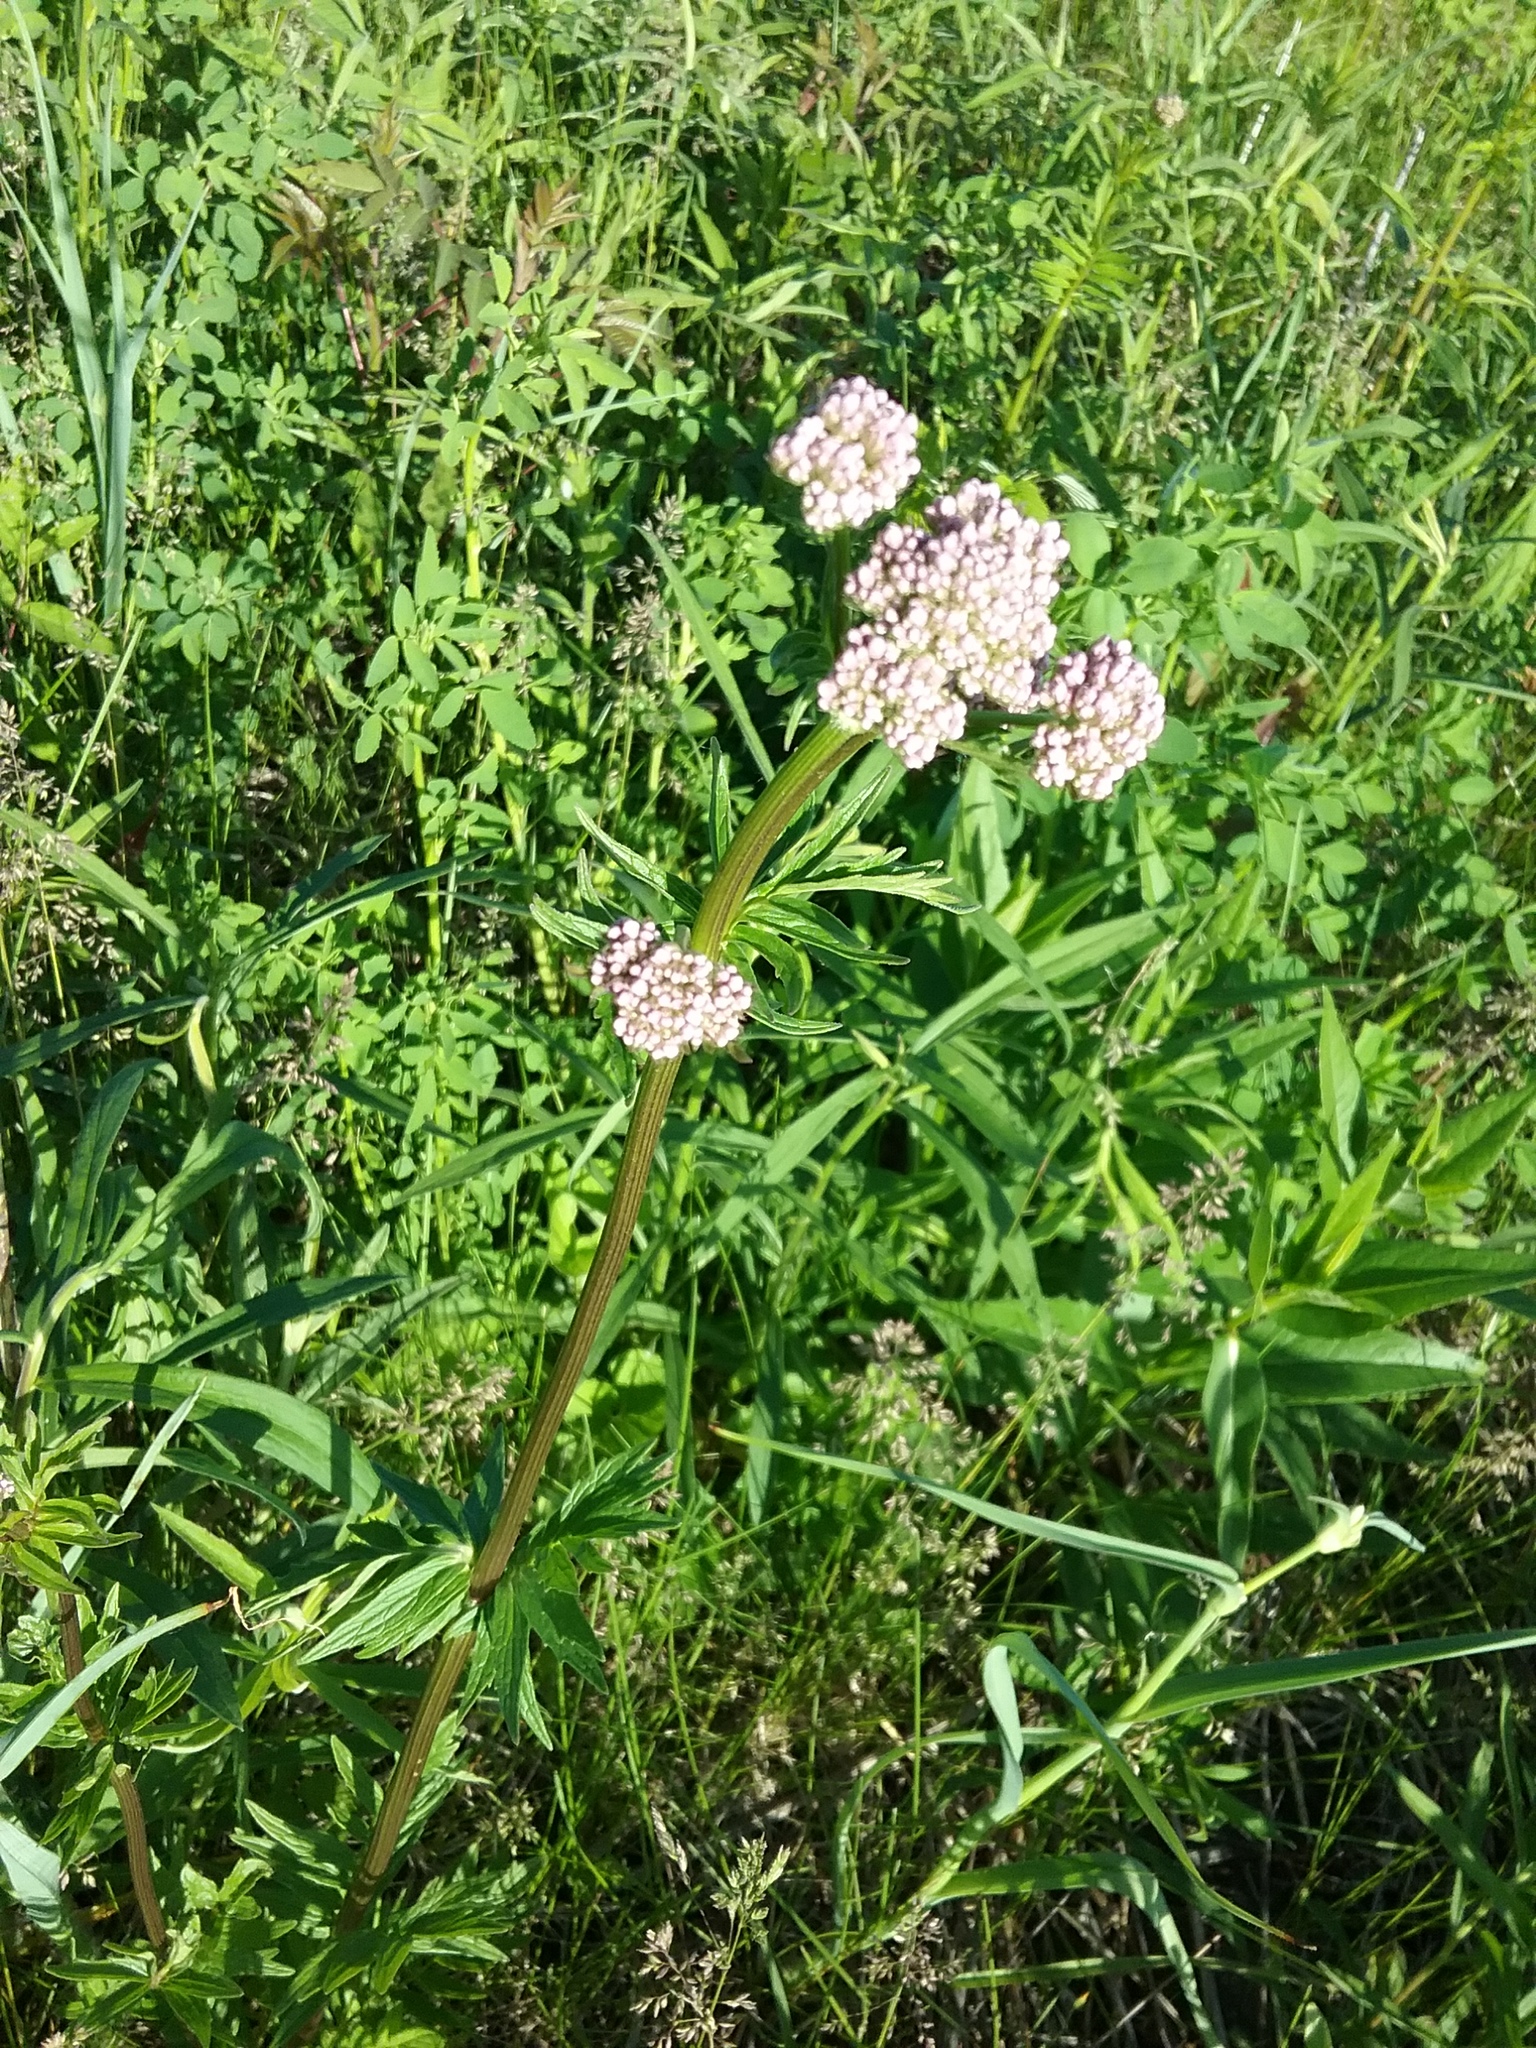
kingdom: Plantae
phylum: Tracheophyta
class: Magnoliopsida
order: Dipsacales
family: Caprifoliaceae
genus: Valeriana
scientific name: Valeriana officinalis
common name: Common valerian
